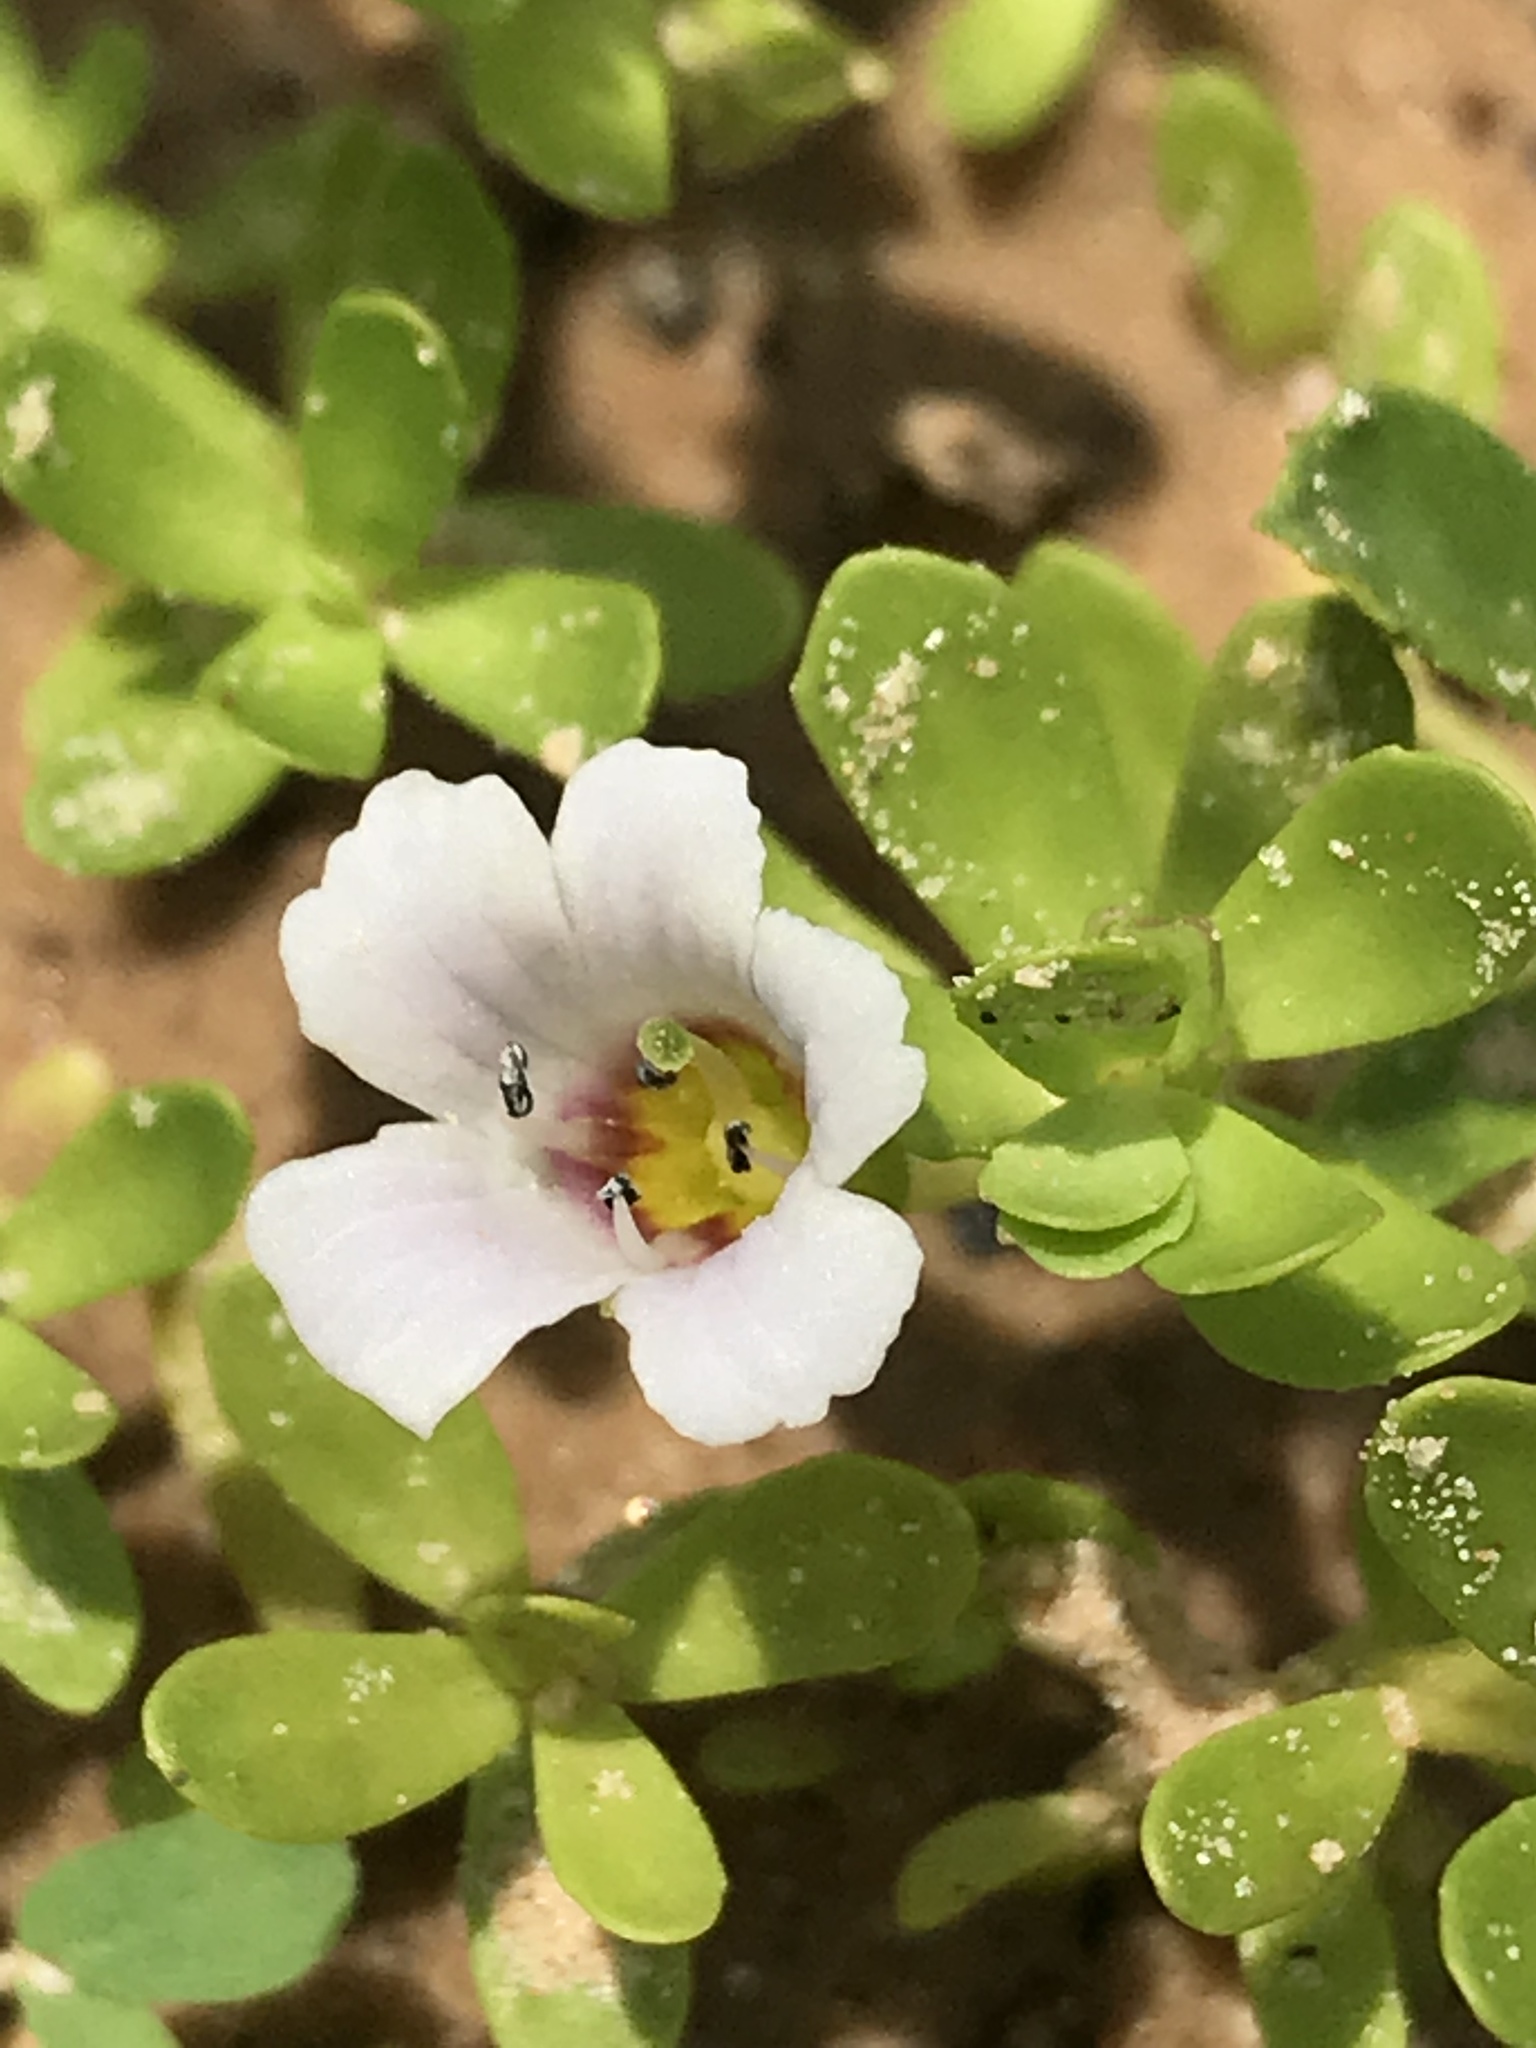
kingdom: Plantae
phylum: Tracheophyta
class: Magnoliopsida
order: Lamiales
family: Plantaginaceae
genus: Bacopa
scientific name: Bacopa monnieri
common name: Indian-pennywort
